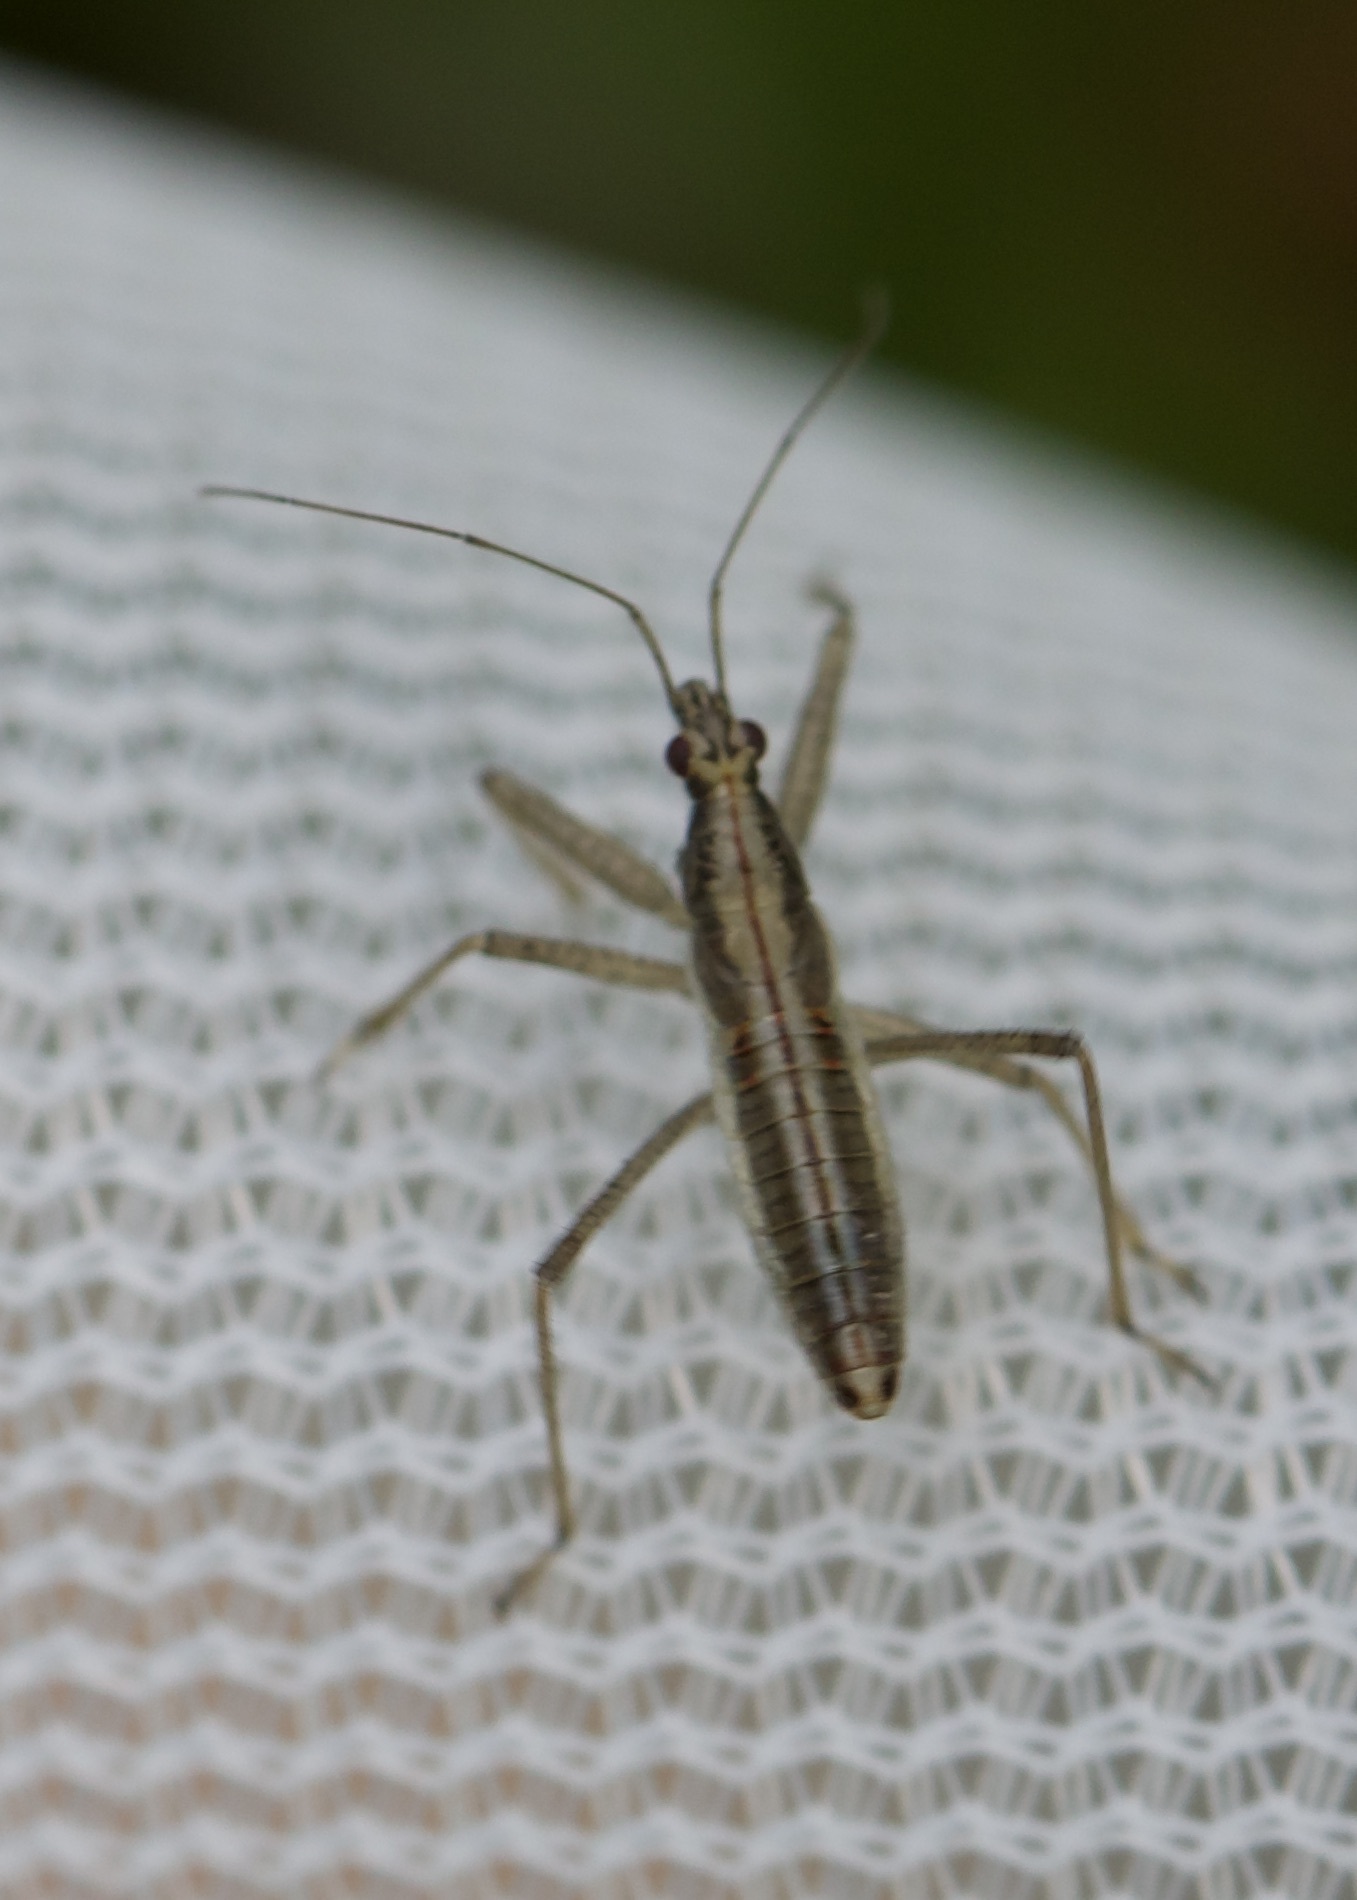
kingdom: Animalia
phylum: Arthropoda
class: Insecta
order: Hemiptera
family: Nabidae
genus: Nabis
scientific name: Nabis limbatus
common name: Marsh damselbug
